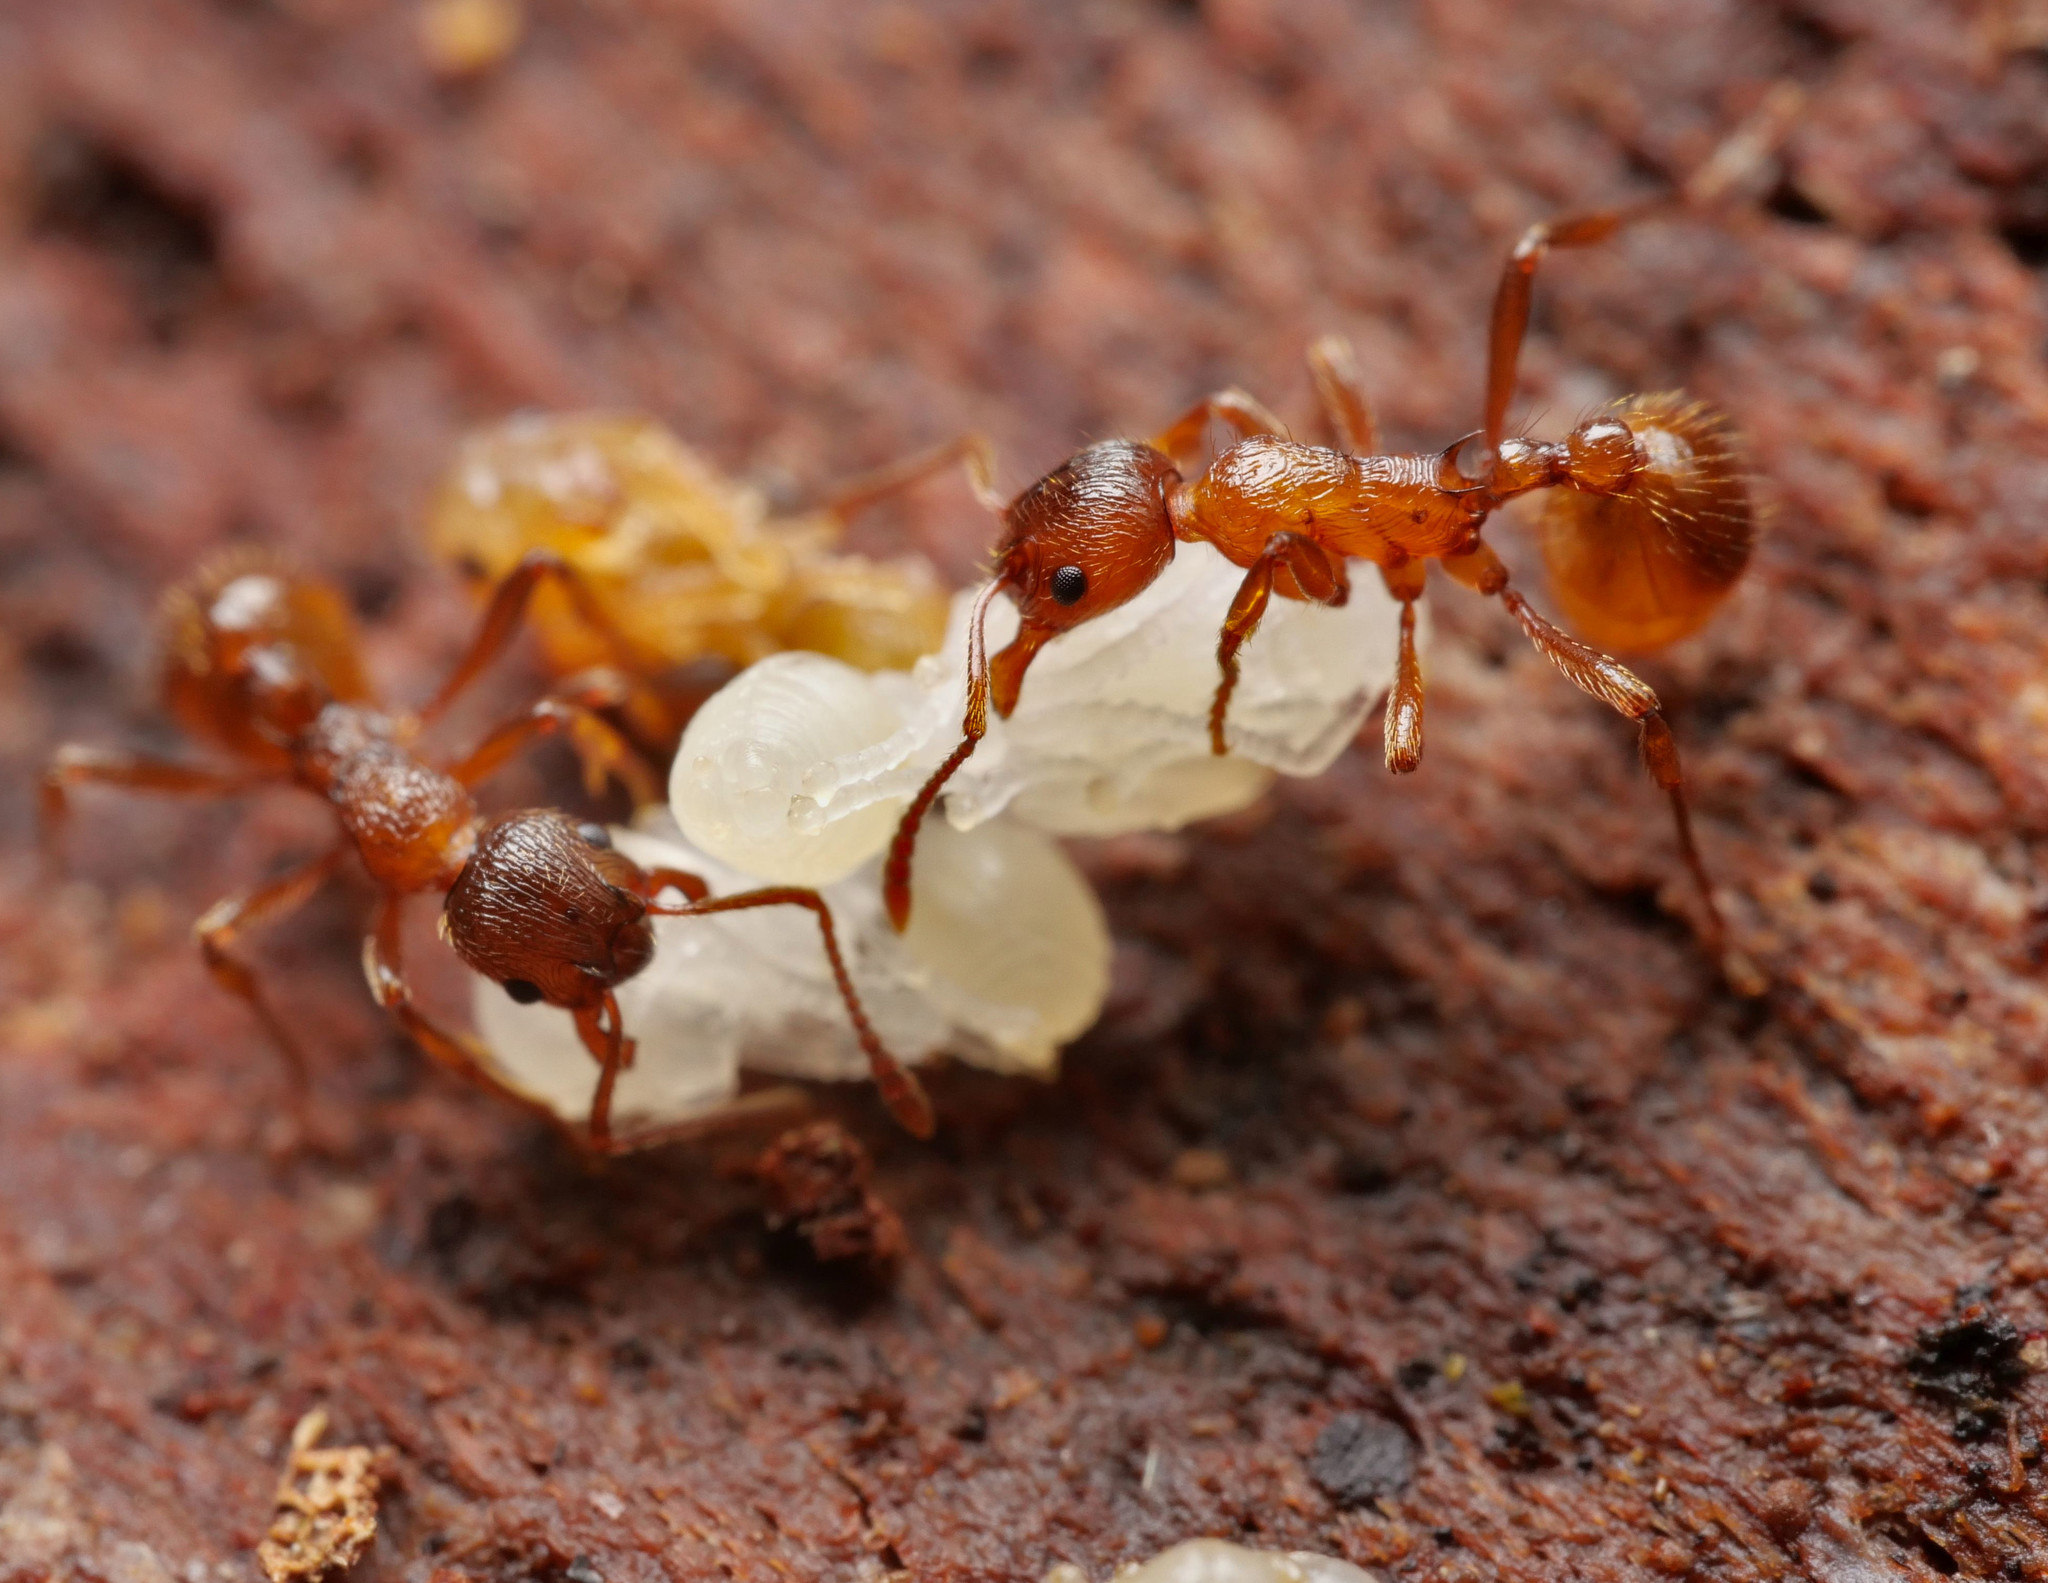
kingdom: Animalia
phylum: Arthropoda
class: Insecta
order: Hymenoptera
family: Formicidae
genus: Myrmica
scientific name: Myrmica rubra
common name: European fire ant
